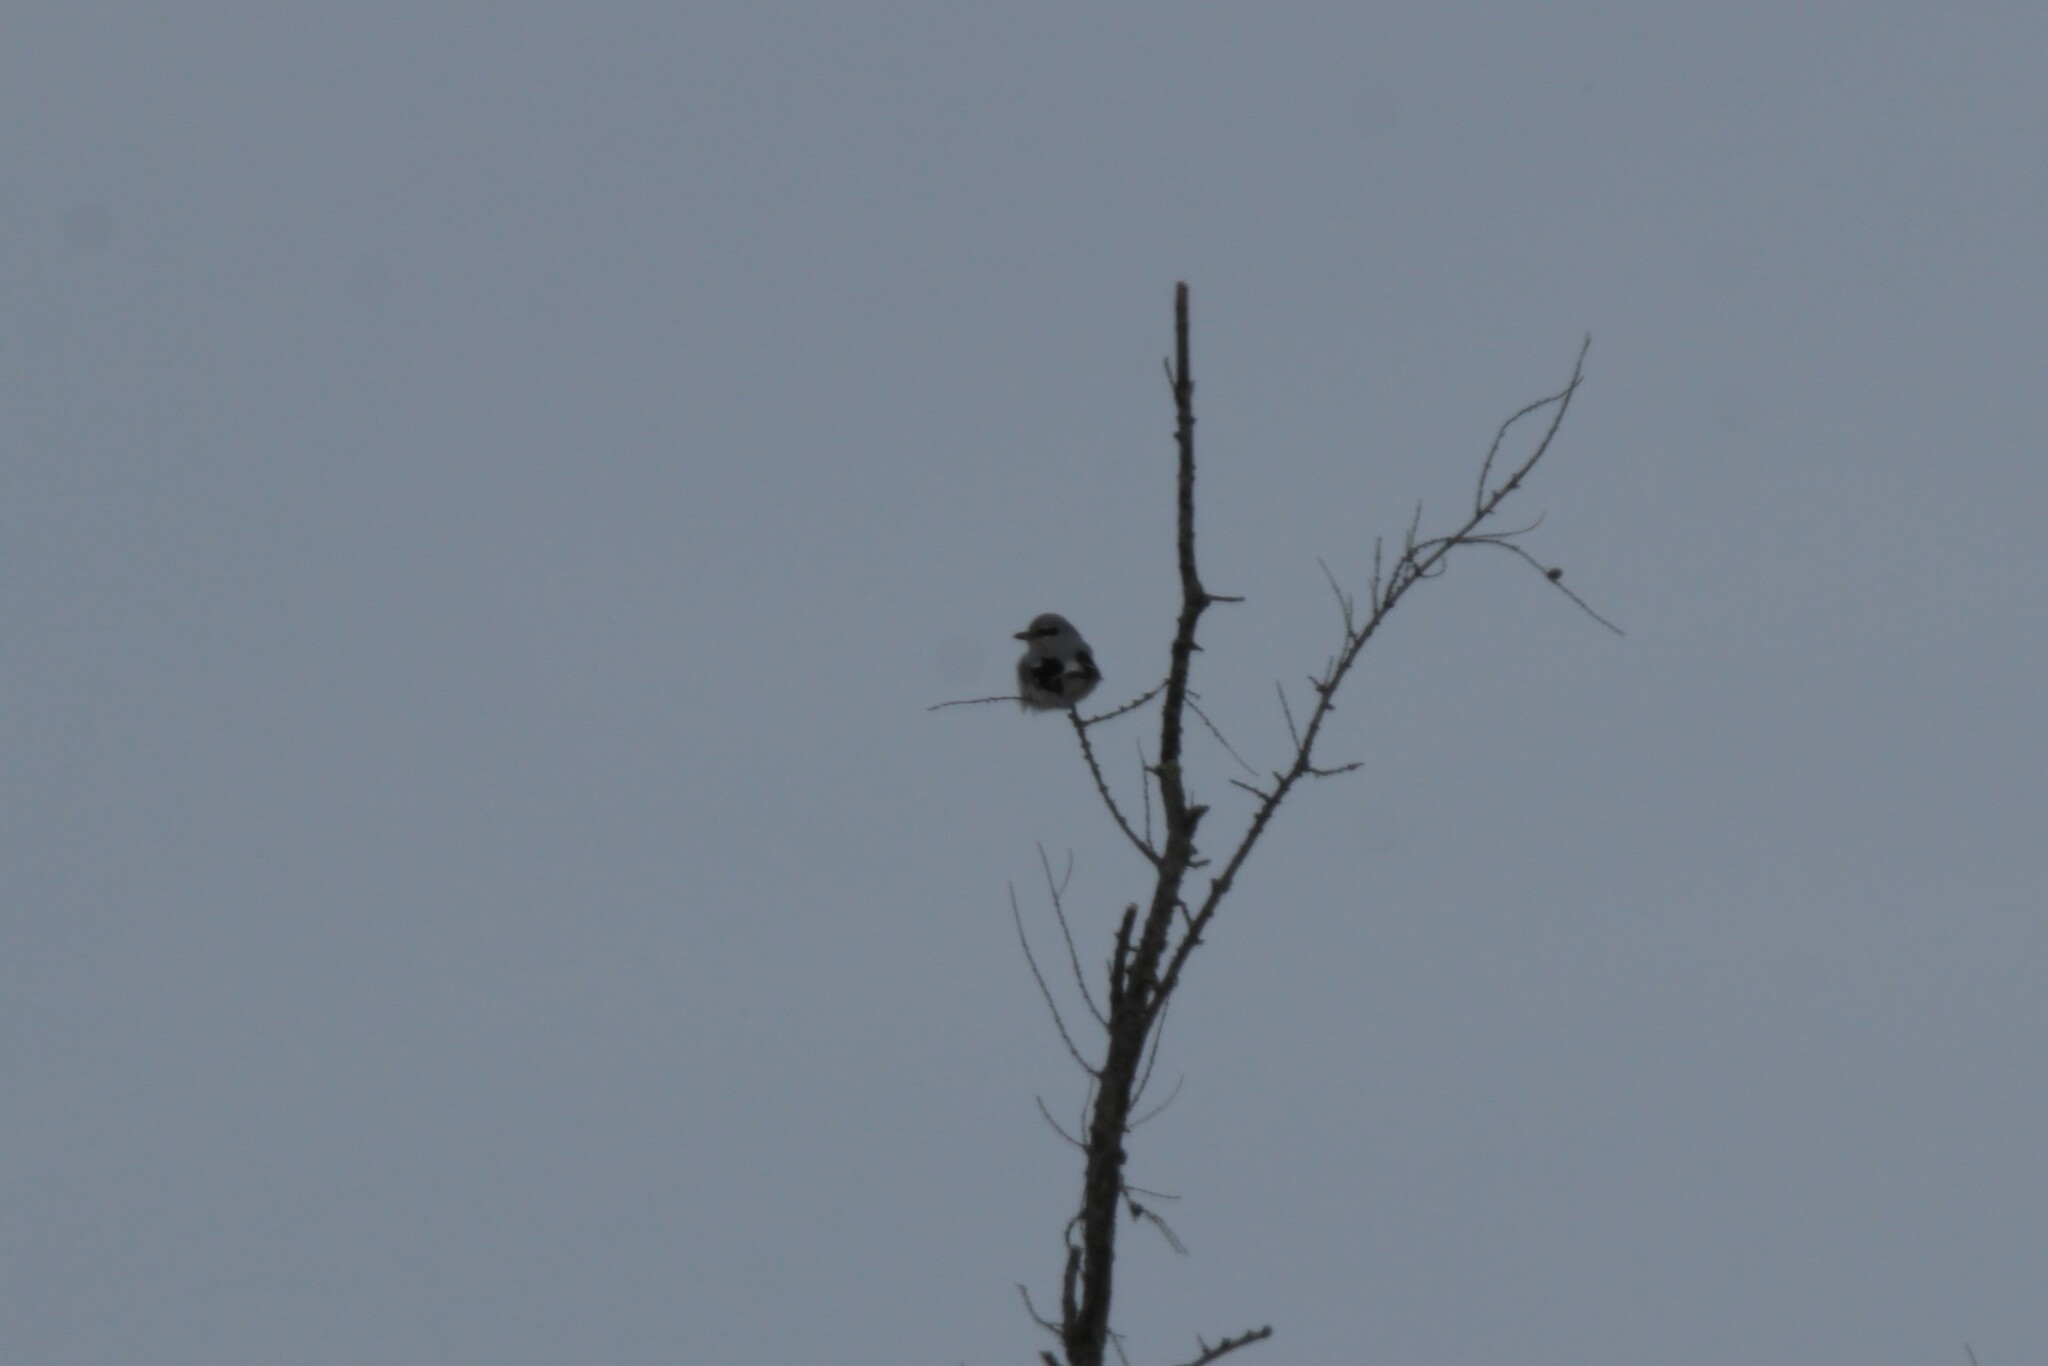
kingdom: Animalia
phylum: Chordata
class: Aves
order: Passeriformes
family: Laniidae
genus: Lanius
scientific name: Lanius borealis
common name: Northern shrike
